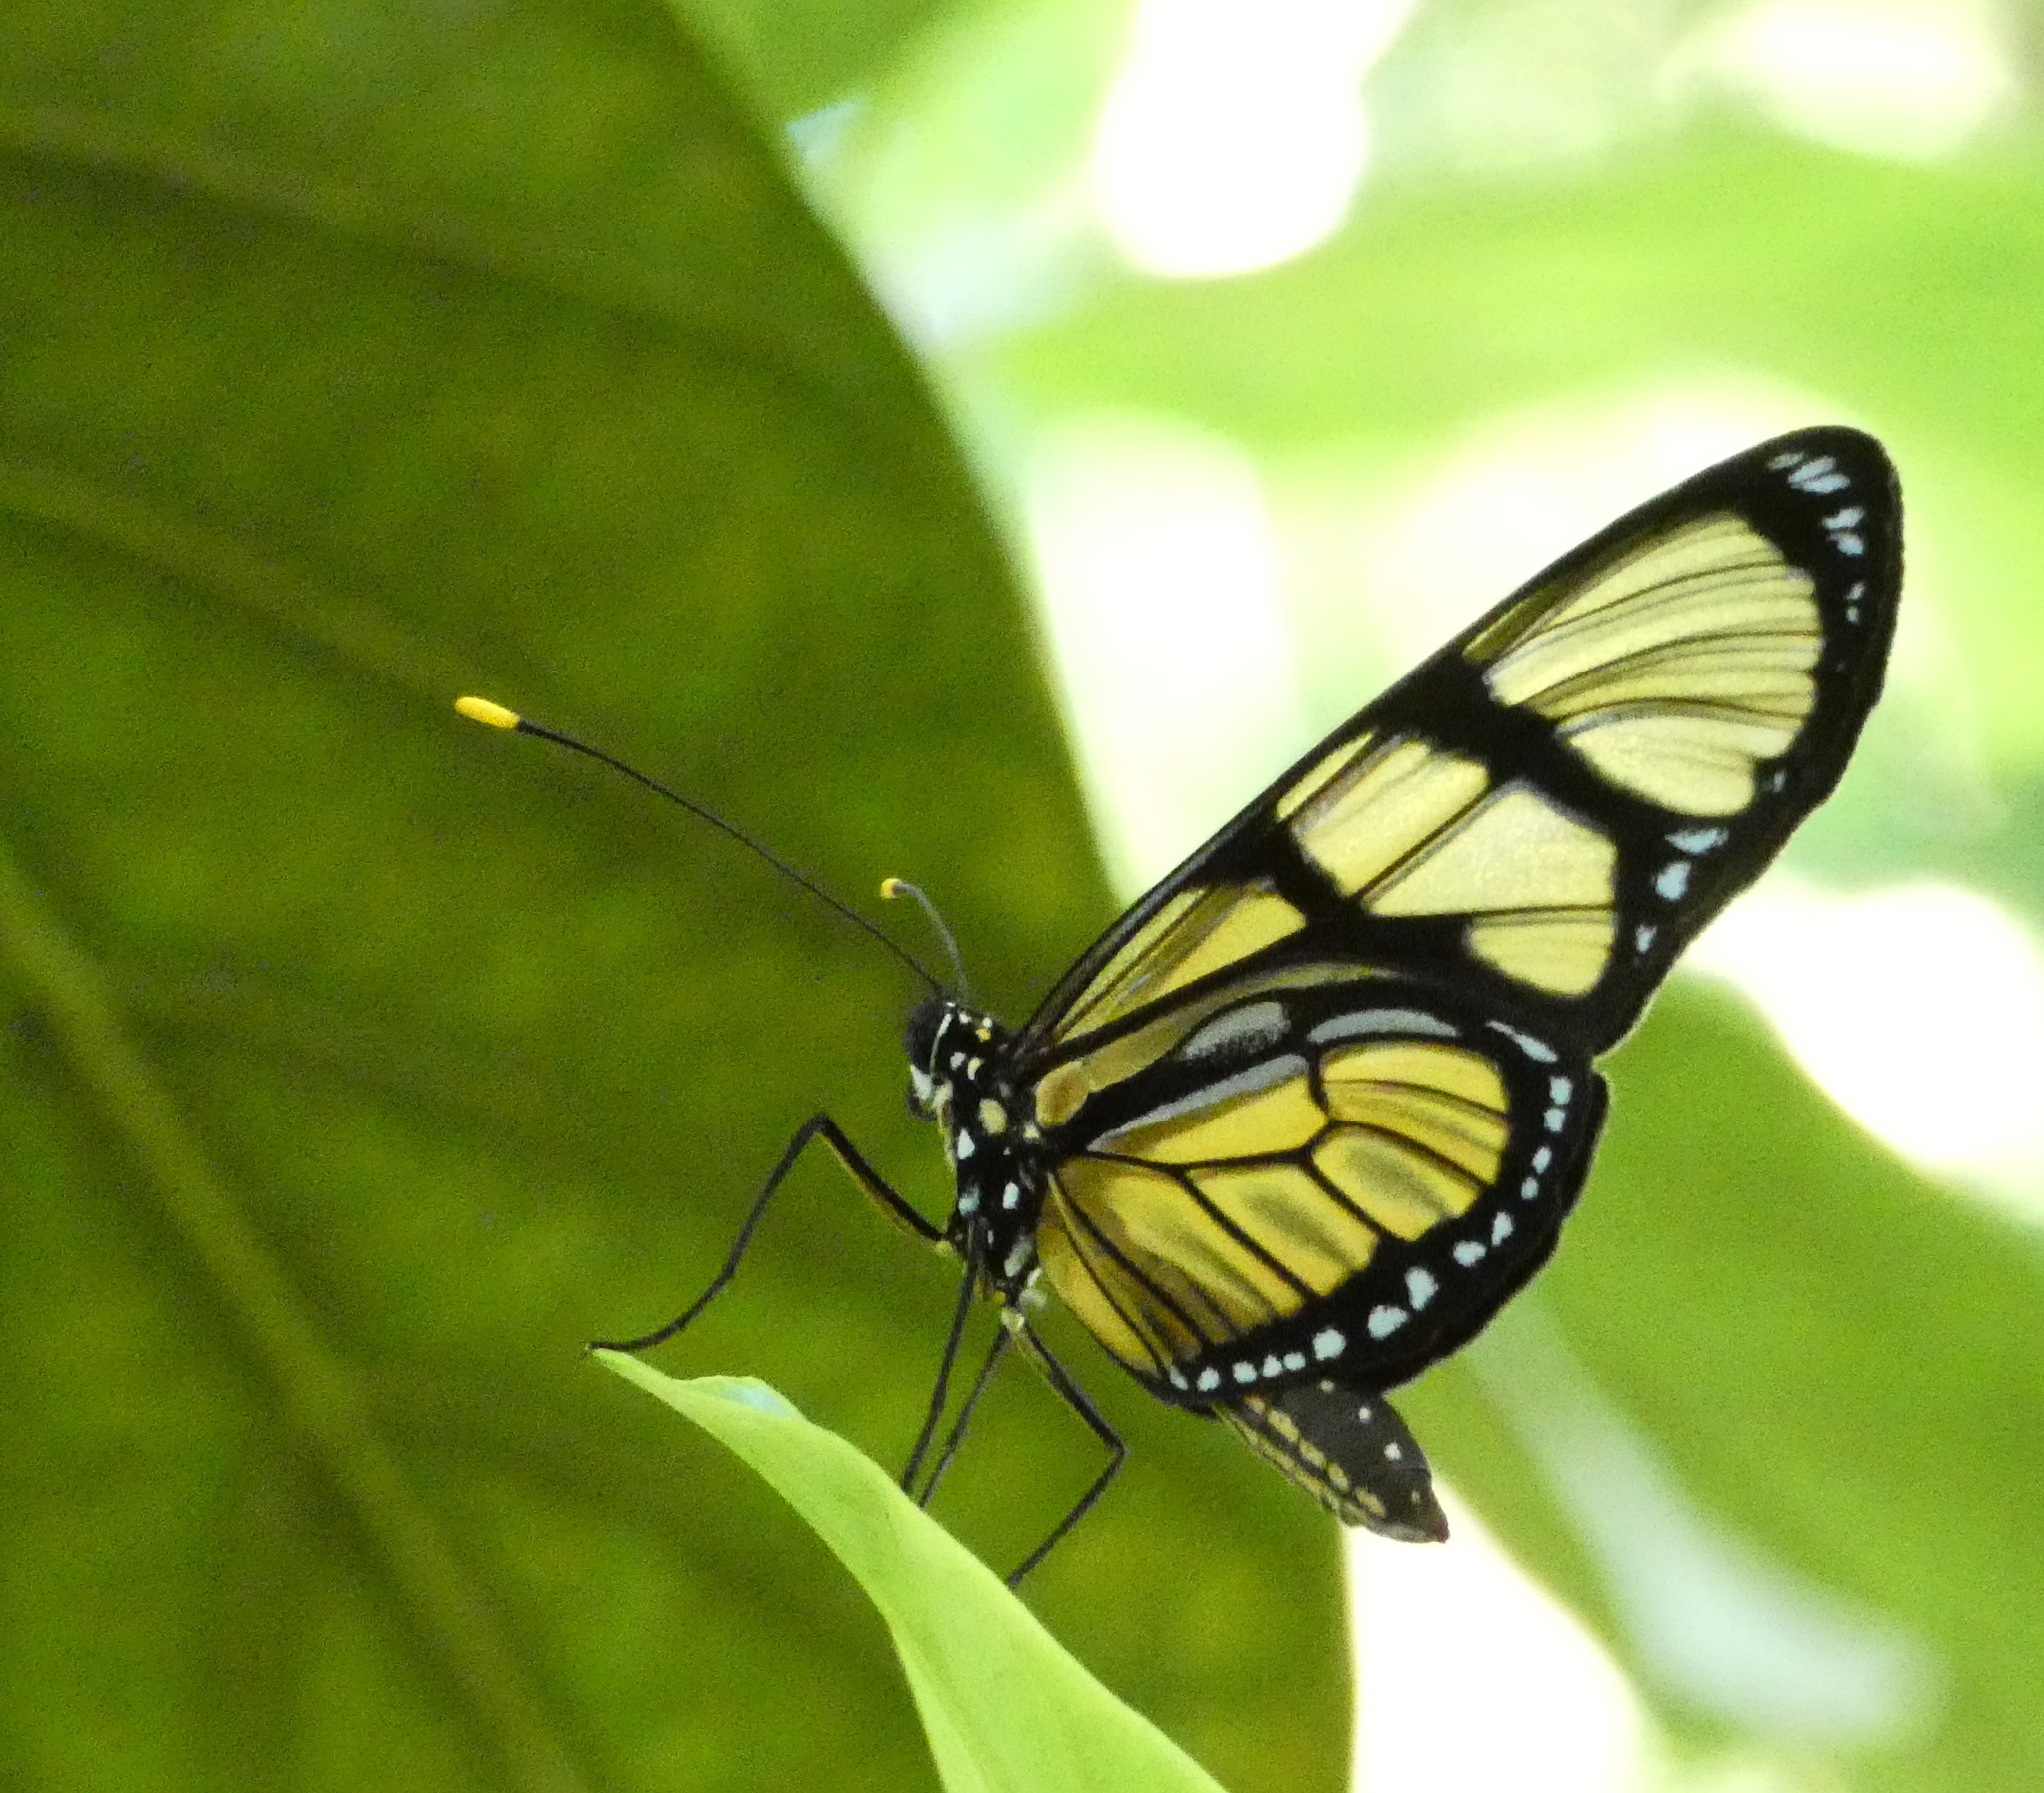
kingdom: Animalia
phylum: Arthropoda
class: Insecta
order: Lepidoptera
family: Nymphalidae
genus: Methona
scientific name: Methona singularis
